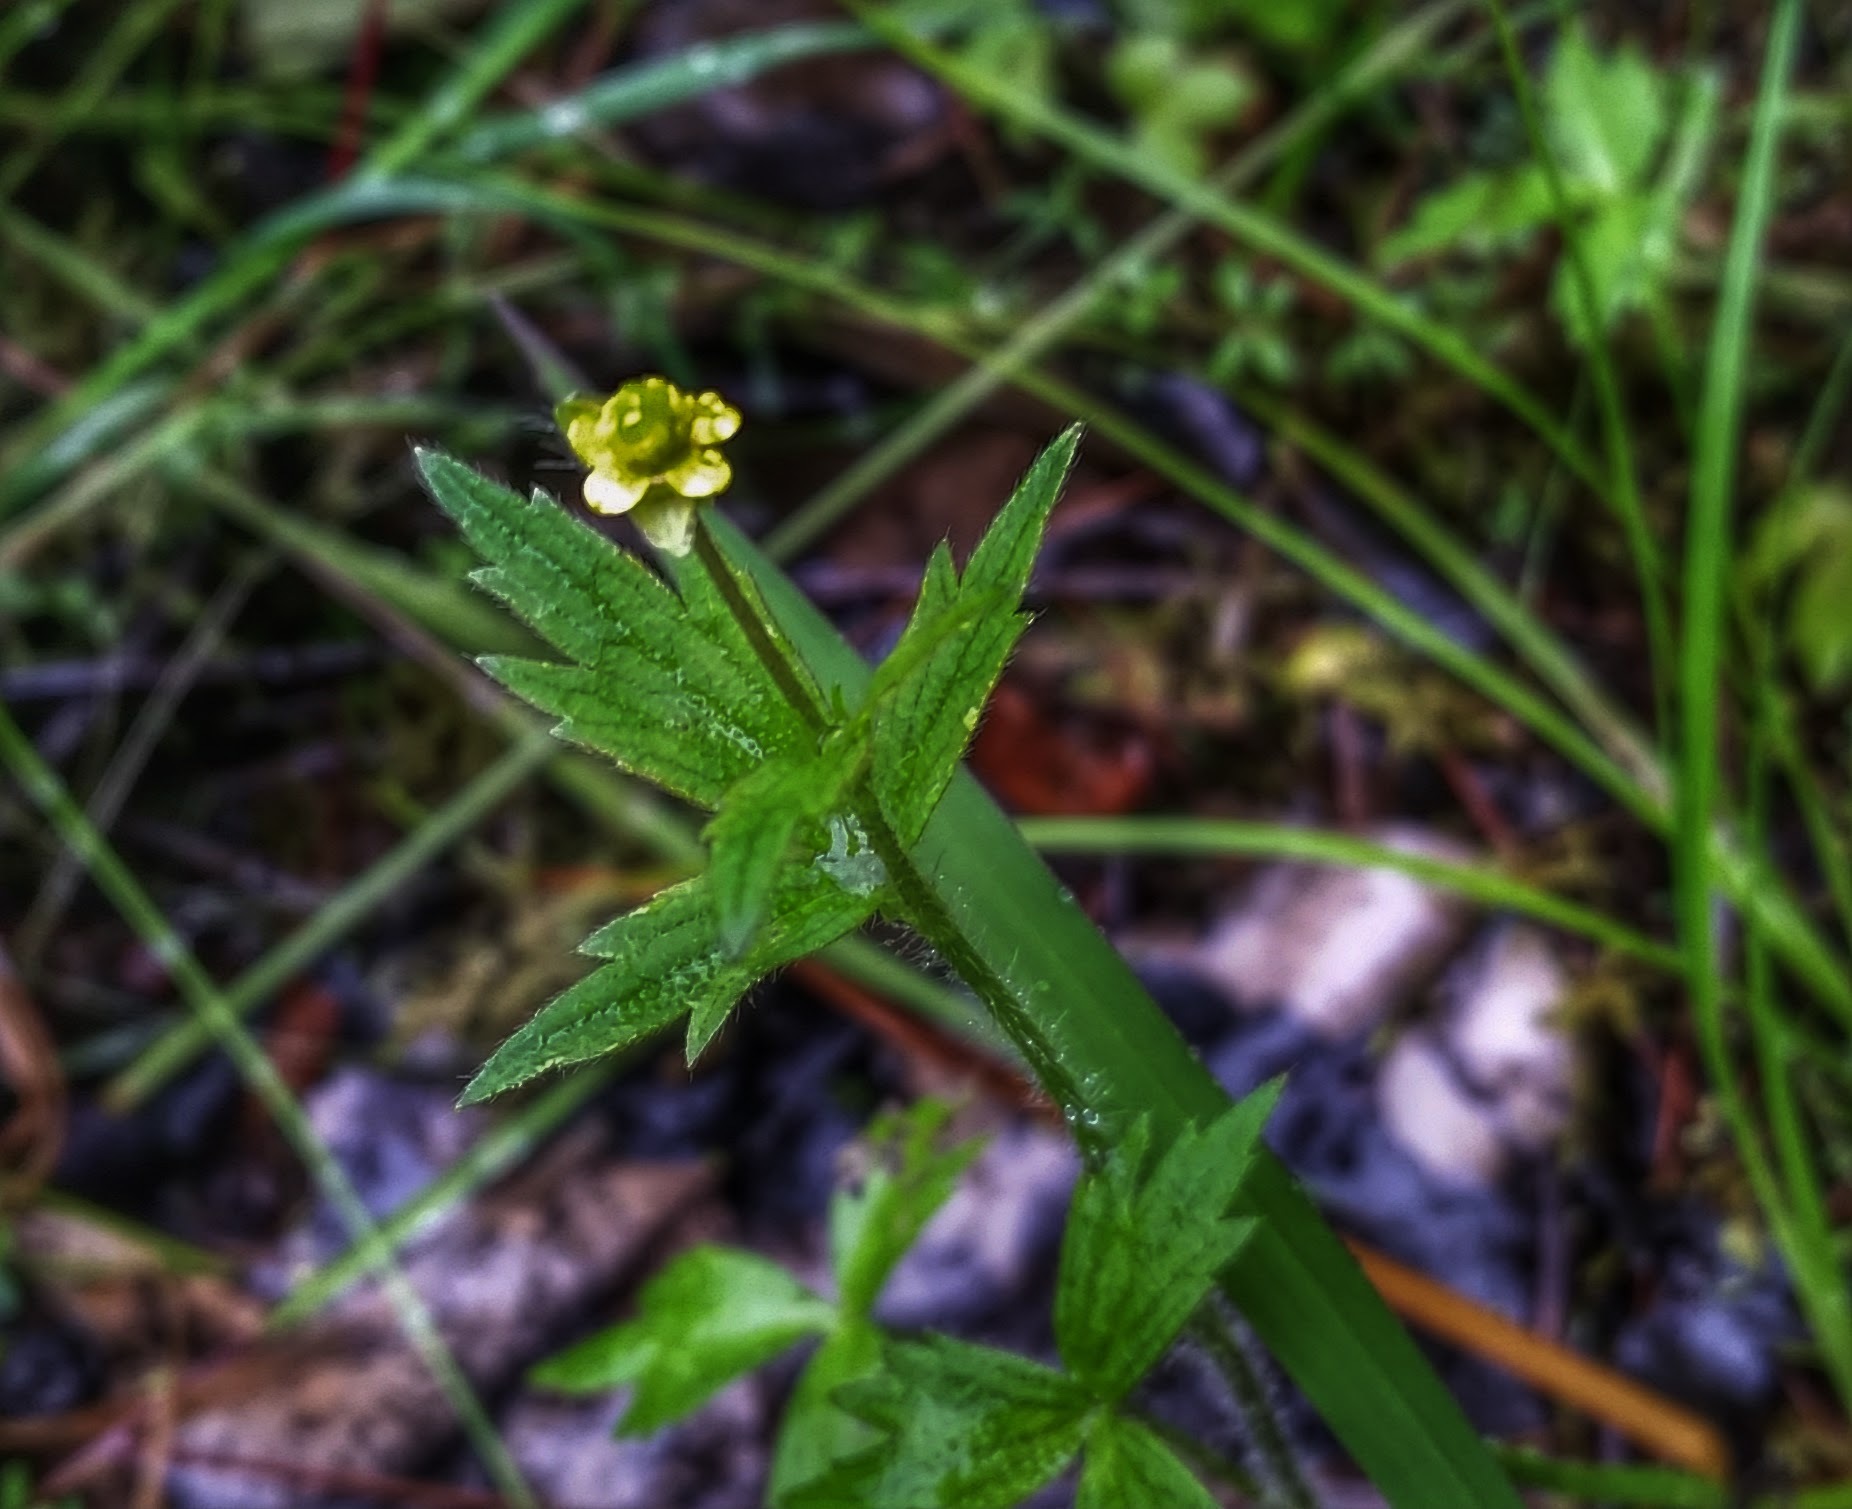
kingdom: Plantae
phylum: Tracheophyta
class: Magnoliopsida
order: Rosales
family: Rosaceae
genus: Geum
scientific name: Geum aleppicum
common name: Yellow avens
